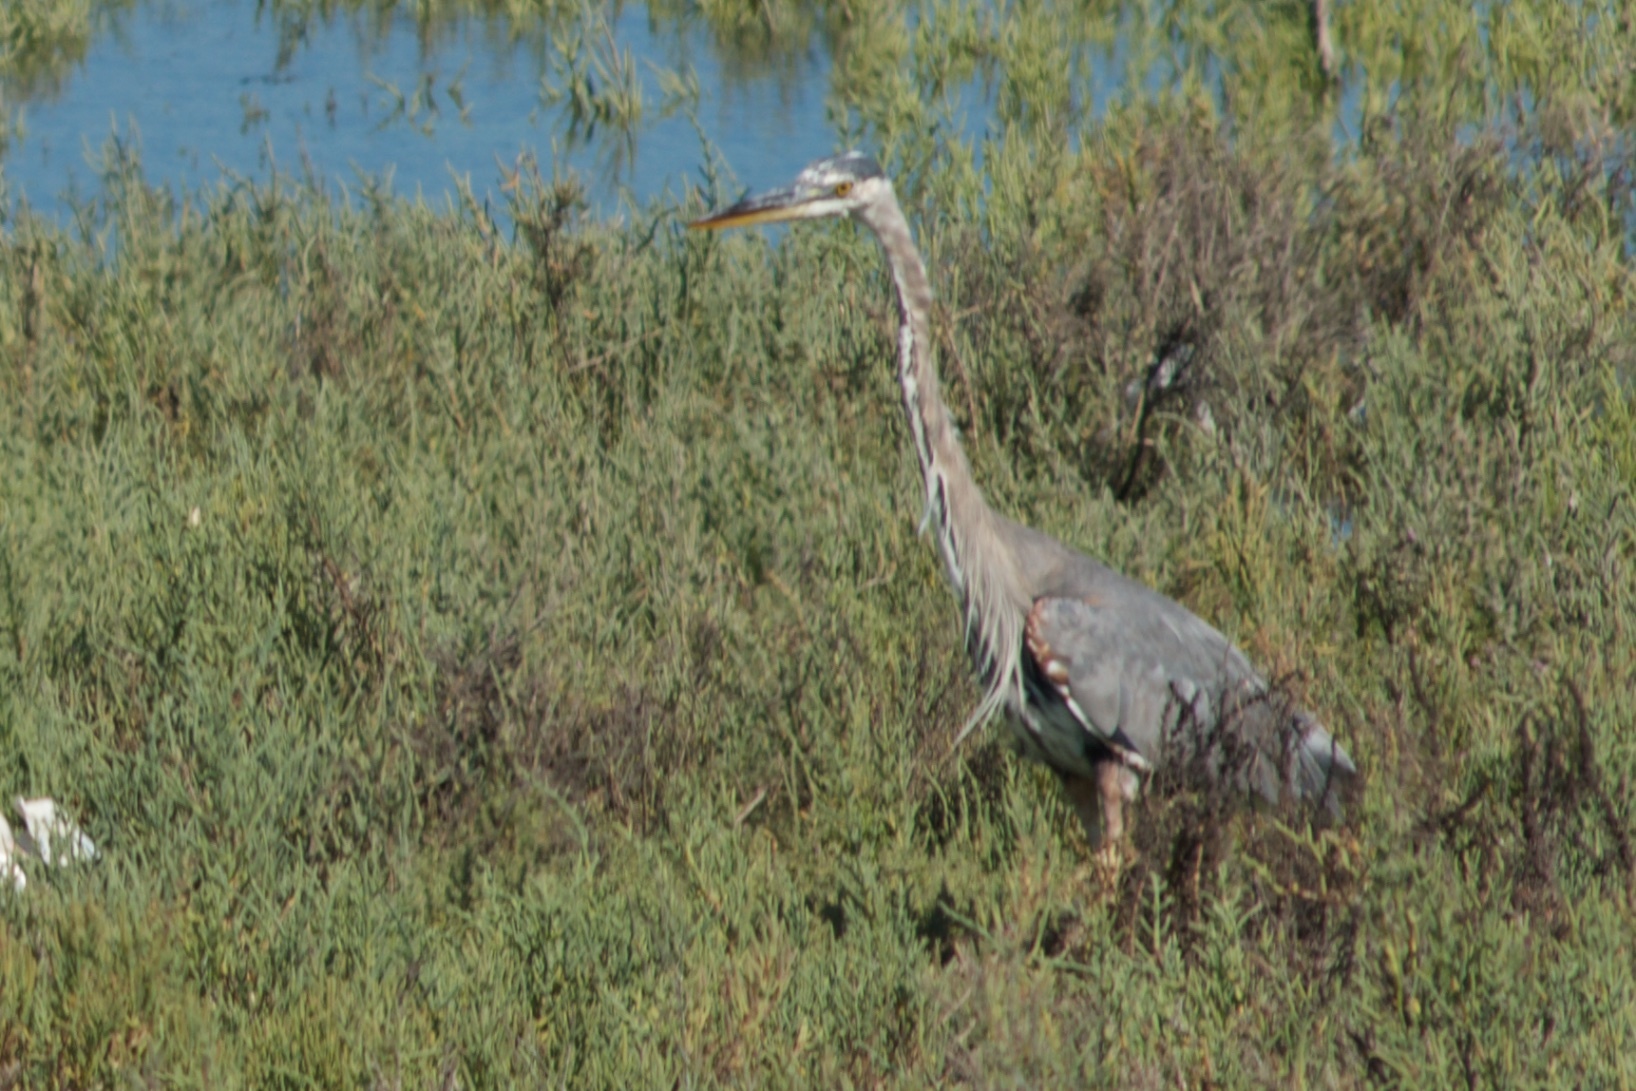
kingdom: Animalia
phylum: Chordata
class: Aves
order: Pelecaniformes
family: Ardeidae
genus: Ardea
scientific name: Ardea herodias
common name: Great blue heron
